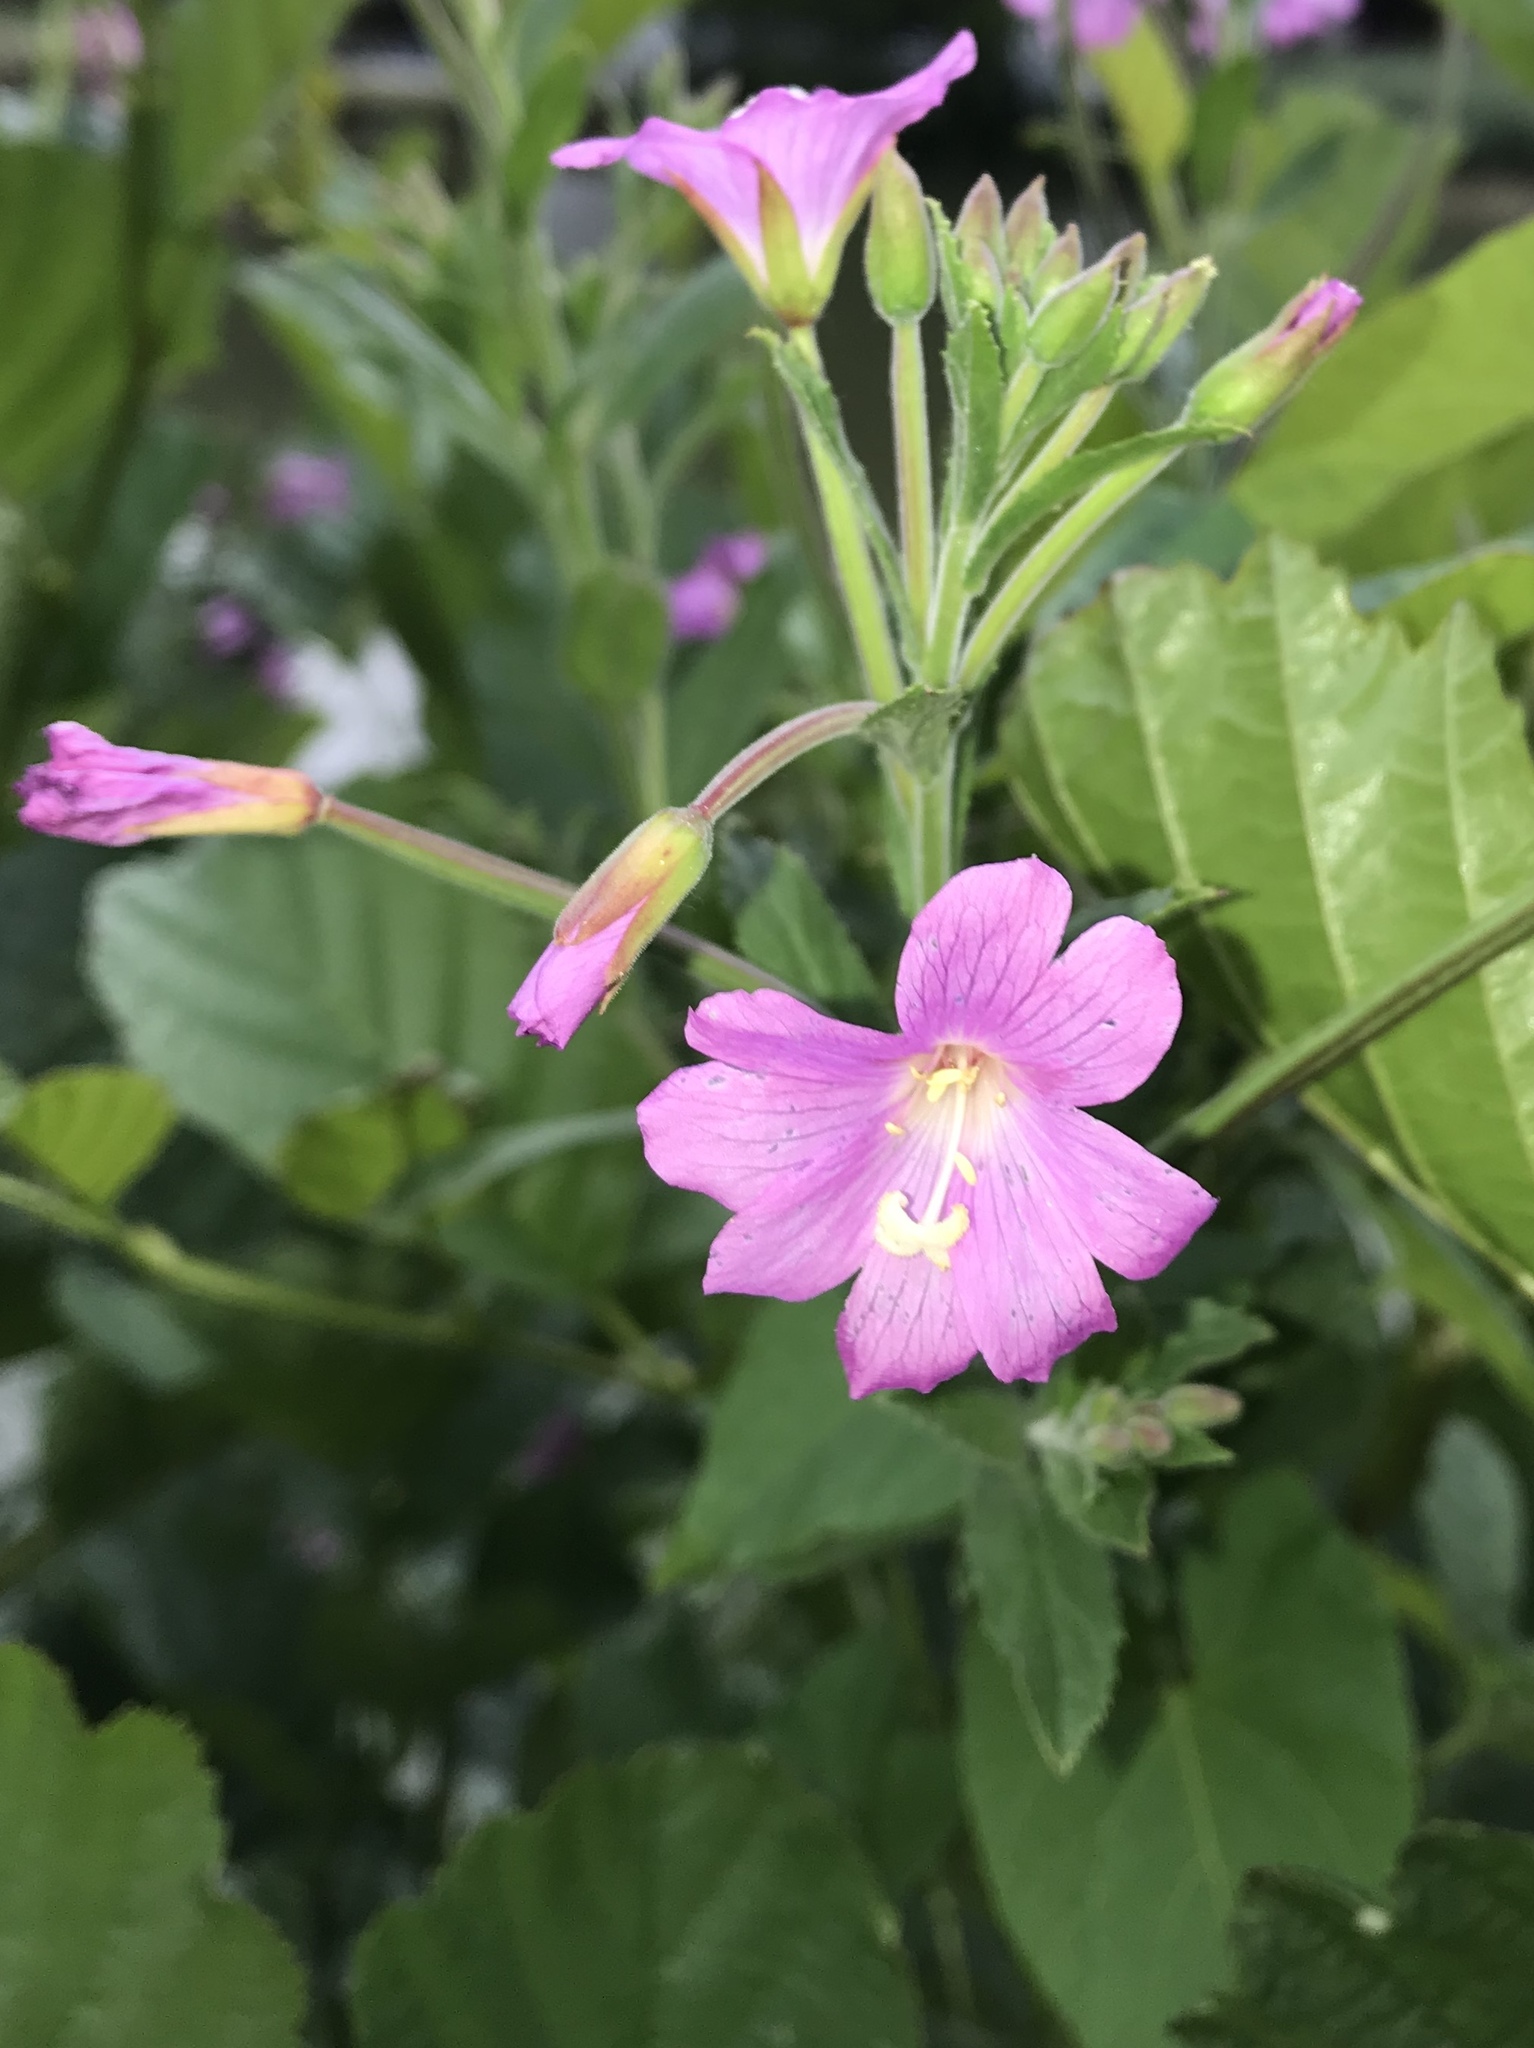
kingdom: Plantae
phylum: Tracheophyta
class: Magnoliopsida
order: Myrtales
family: Onagraceae
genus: Epilobium
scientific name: Epilobium hirsutum
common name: Great willowherb
